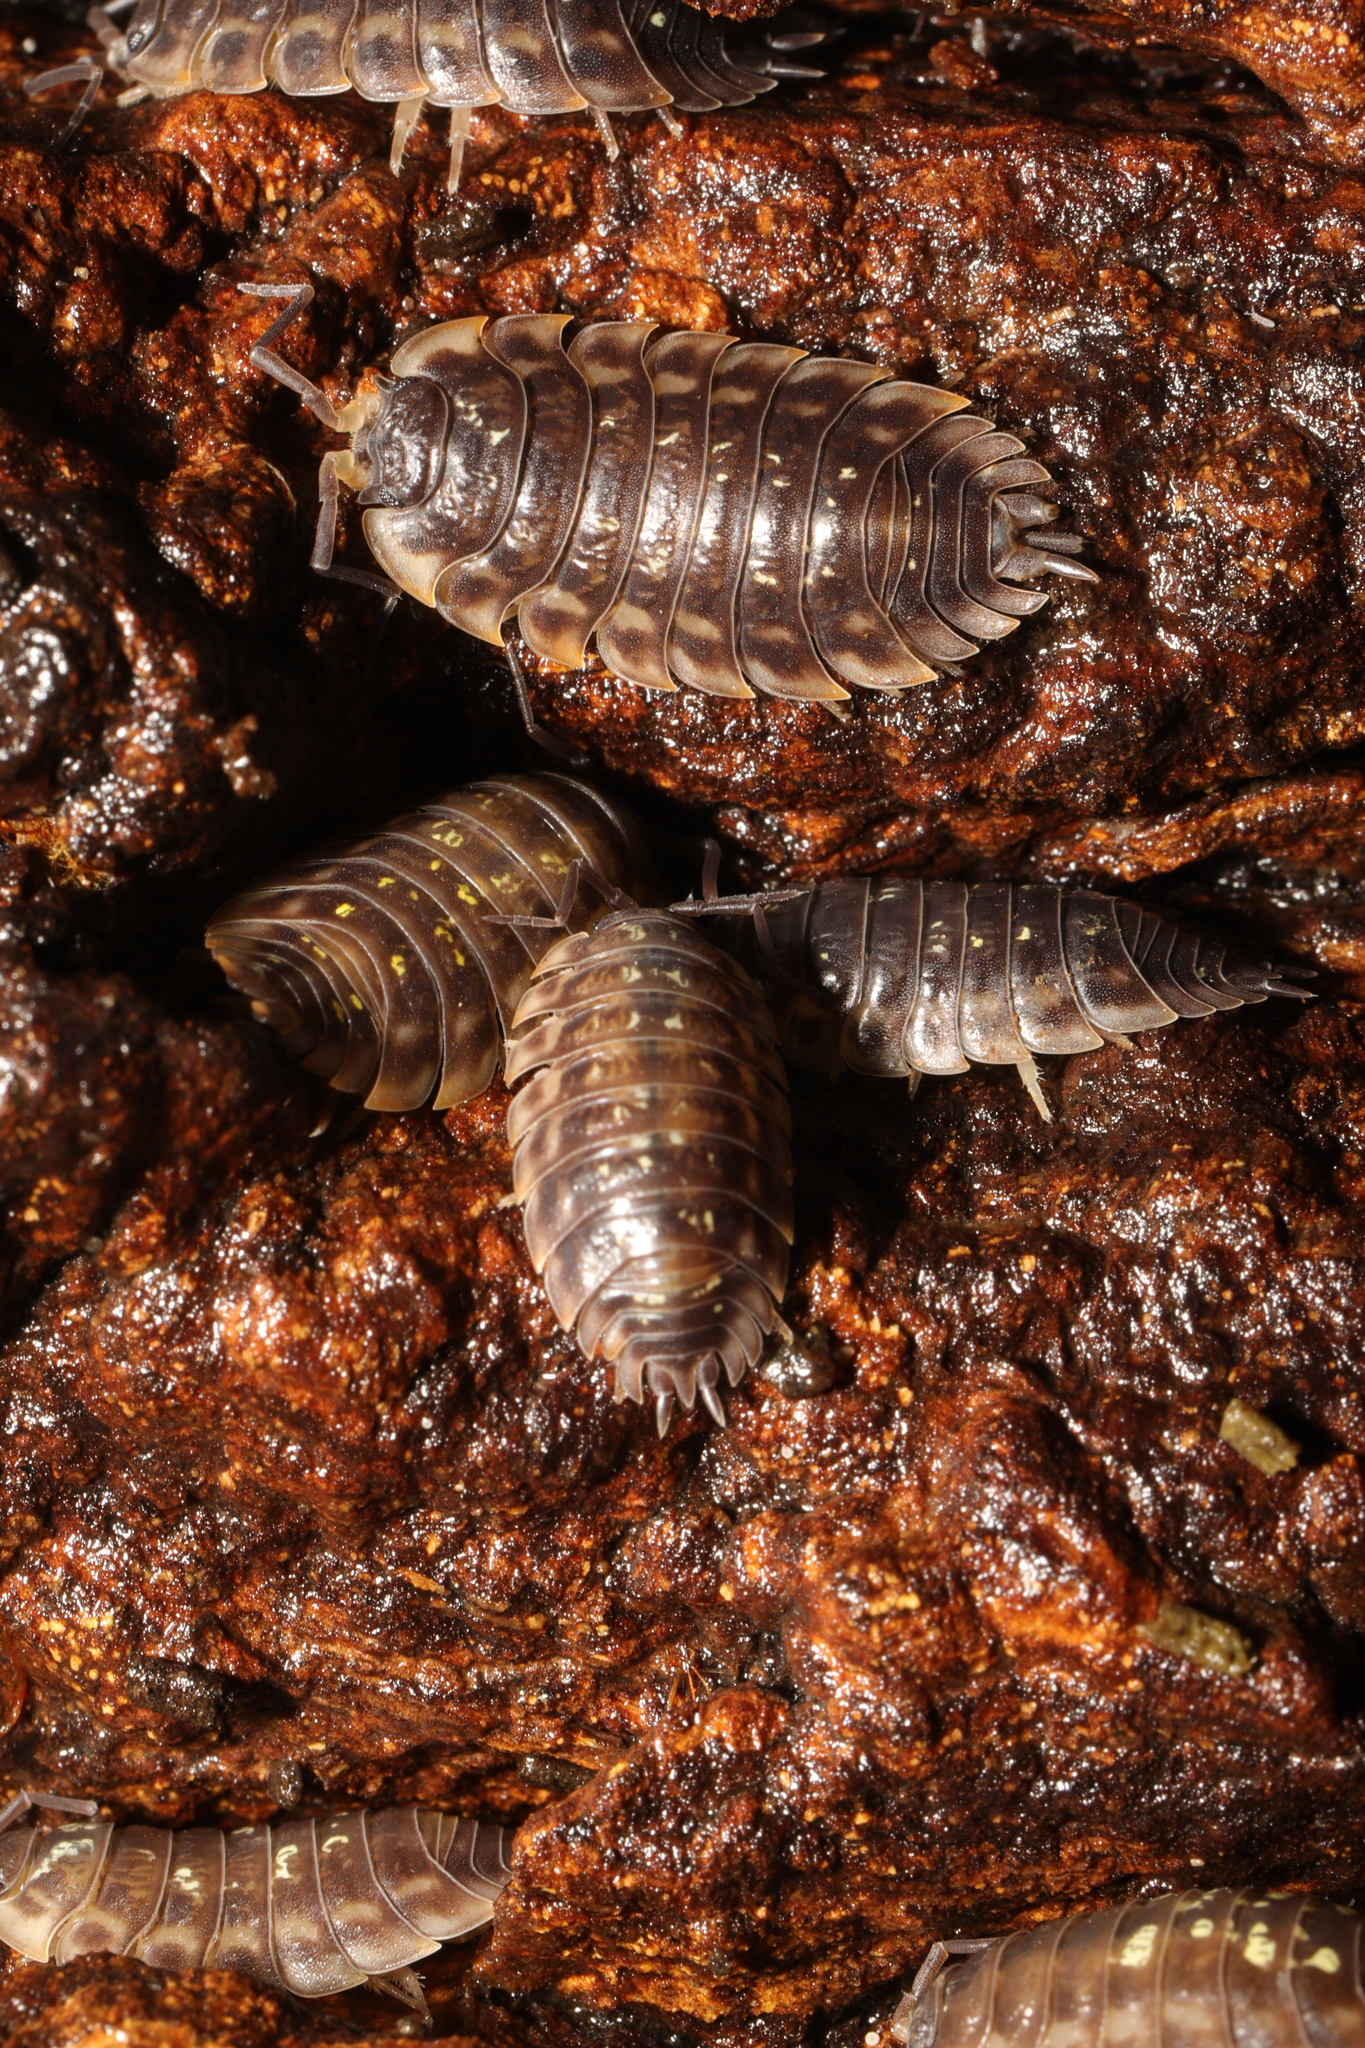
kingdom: Animalia
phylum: Arthropoda
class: Malacostraca
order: Isopoda
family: Oniscidae
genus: Oniscus
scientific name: Oniscus asellus
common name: Common shiny woodlouse
